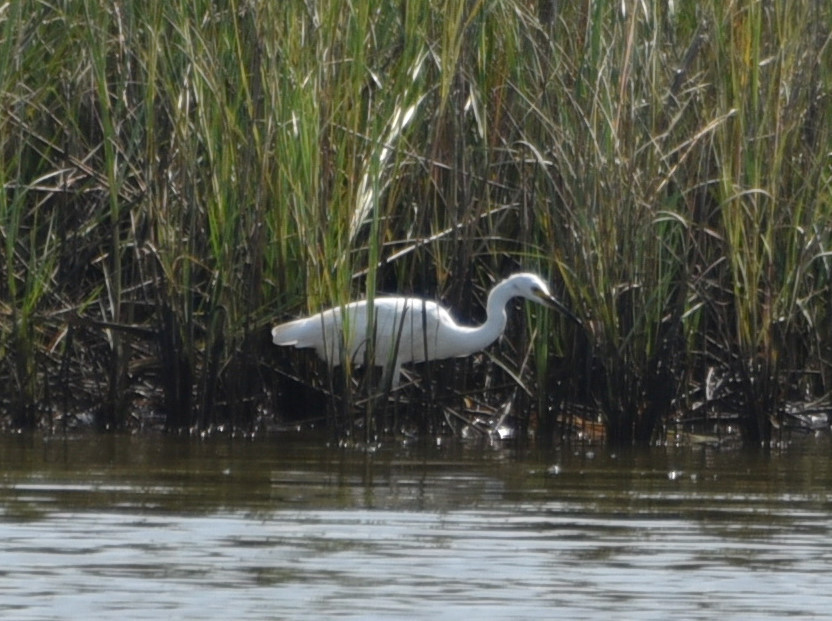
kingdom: Animalia
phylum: Chordata
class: Aves
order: Pelecaniformes
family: Ardeidae
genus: Egretta
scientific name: Egretta thula
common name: Snowy egret
